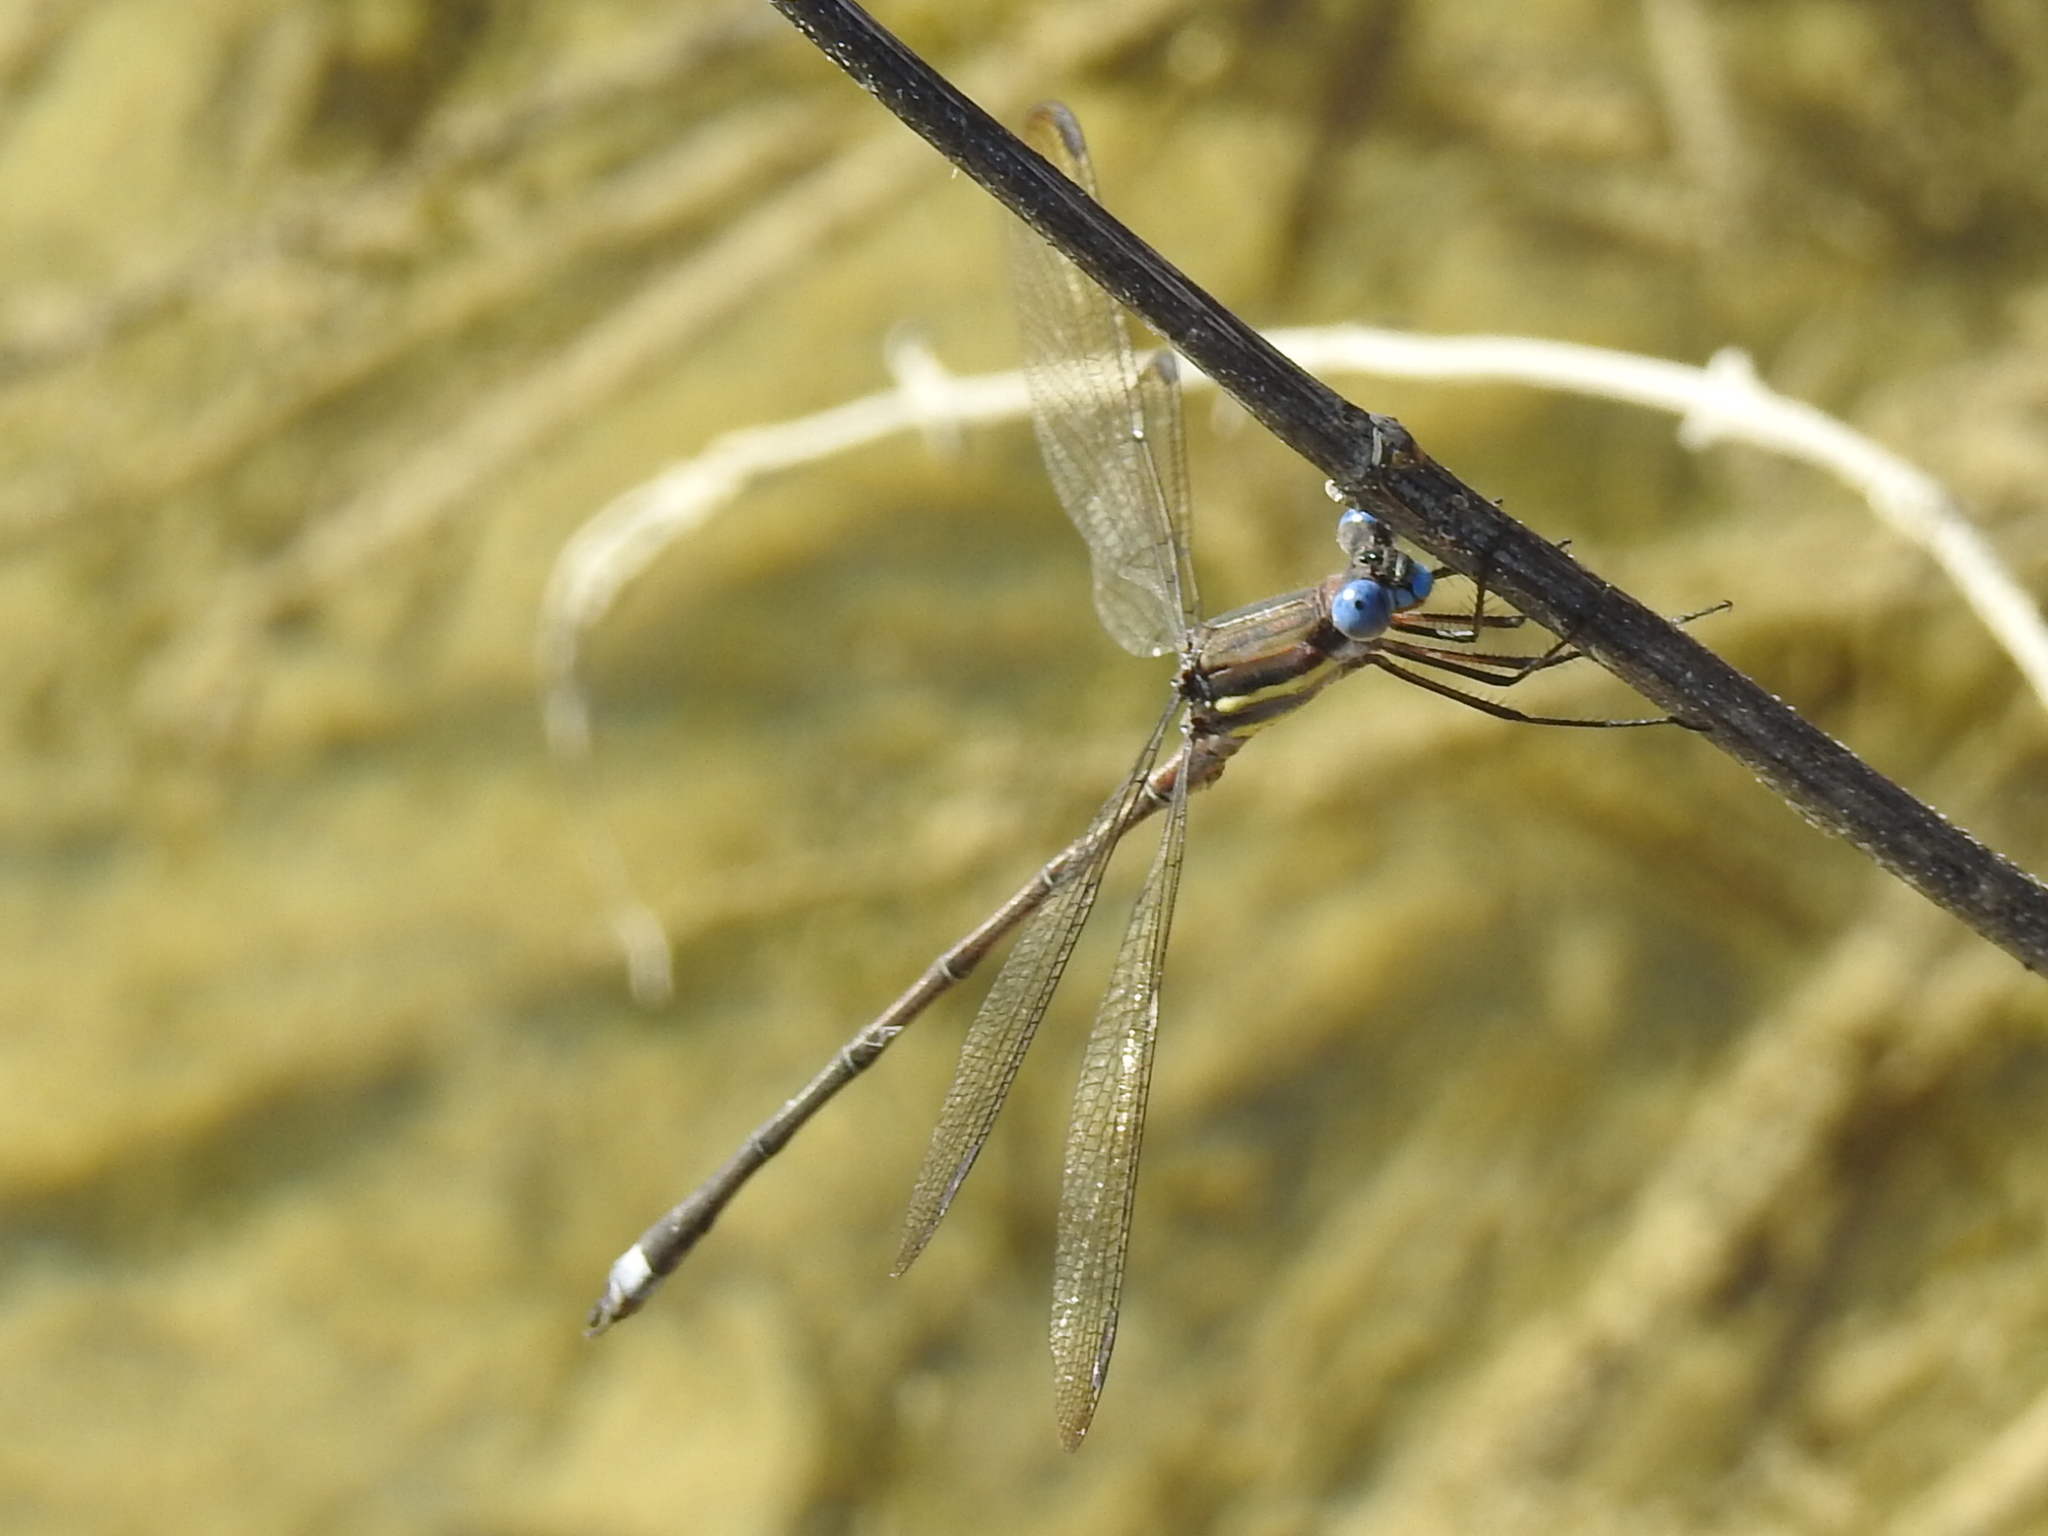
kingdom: Animalia
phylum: Arthropoda
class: Insecta
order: Odonata
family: Lestidae
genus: Archilestes
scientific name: Archilestes grandis
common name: Great spreadwing
